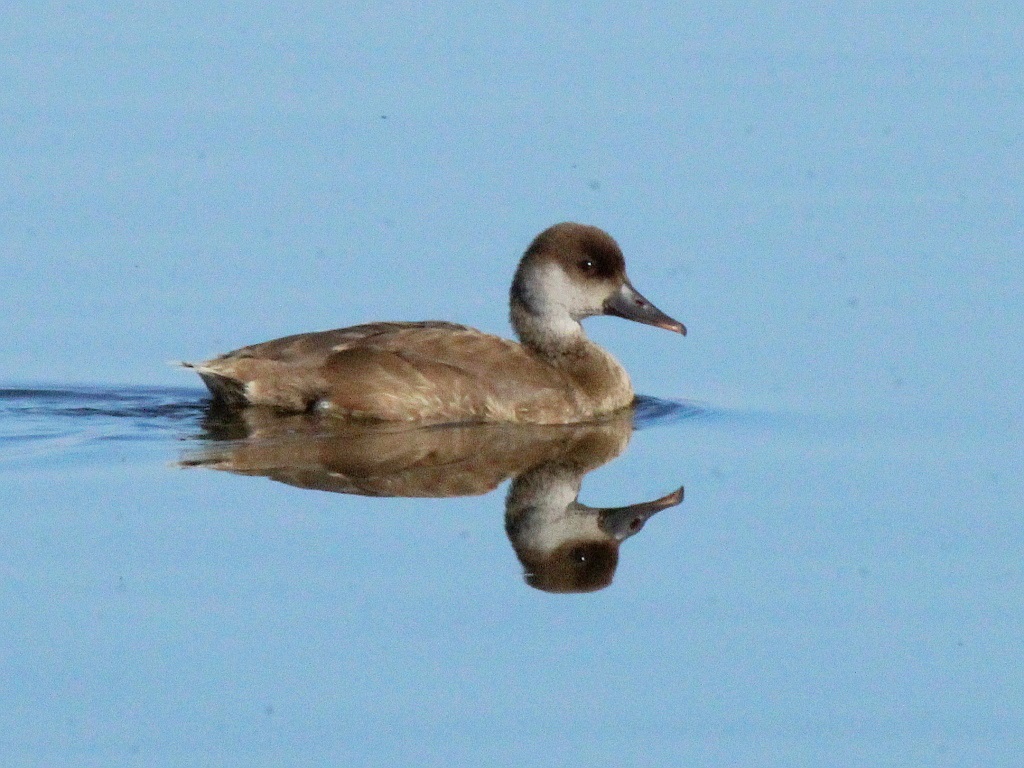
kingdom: Animalia
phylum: Chordata
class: Aves
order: Anseriformes
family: Anatidae
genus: Netta
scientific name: Netta rufina
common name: Red-crested pochard
